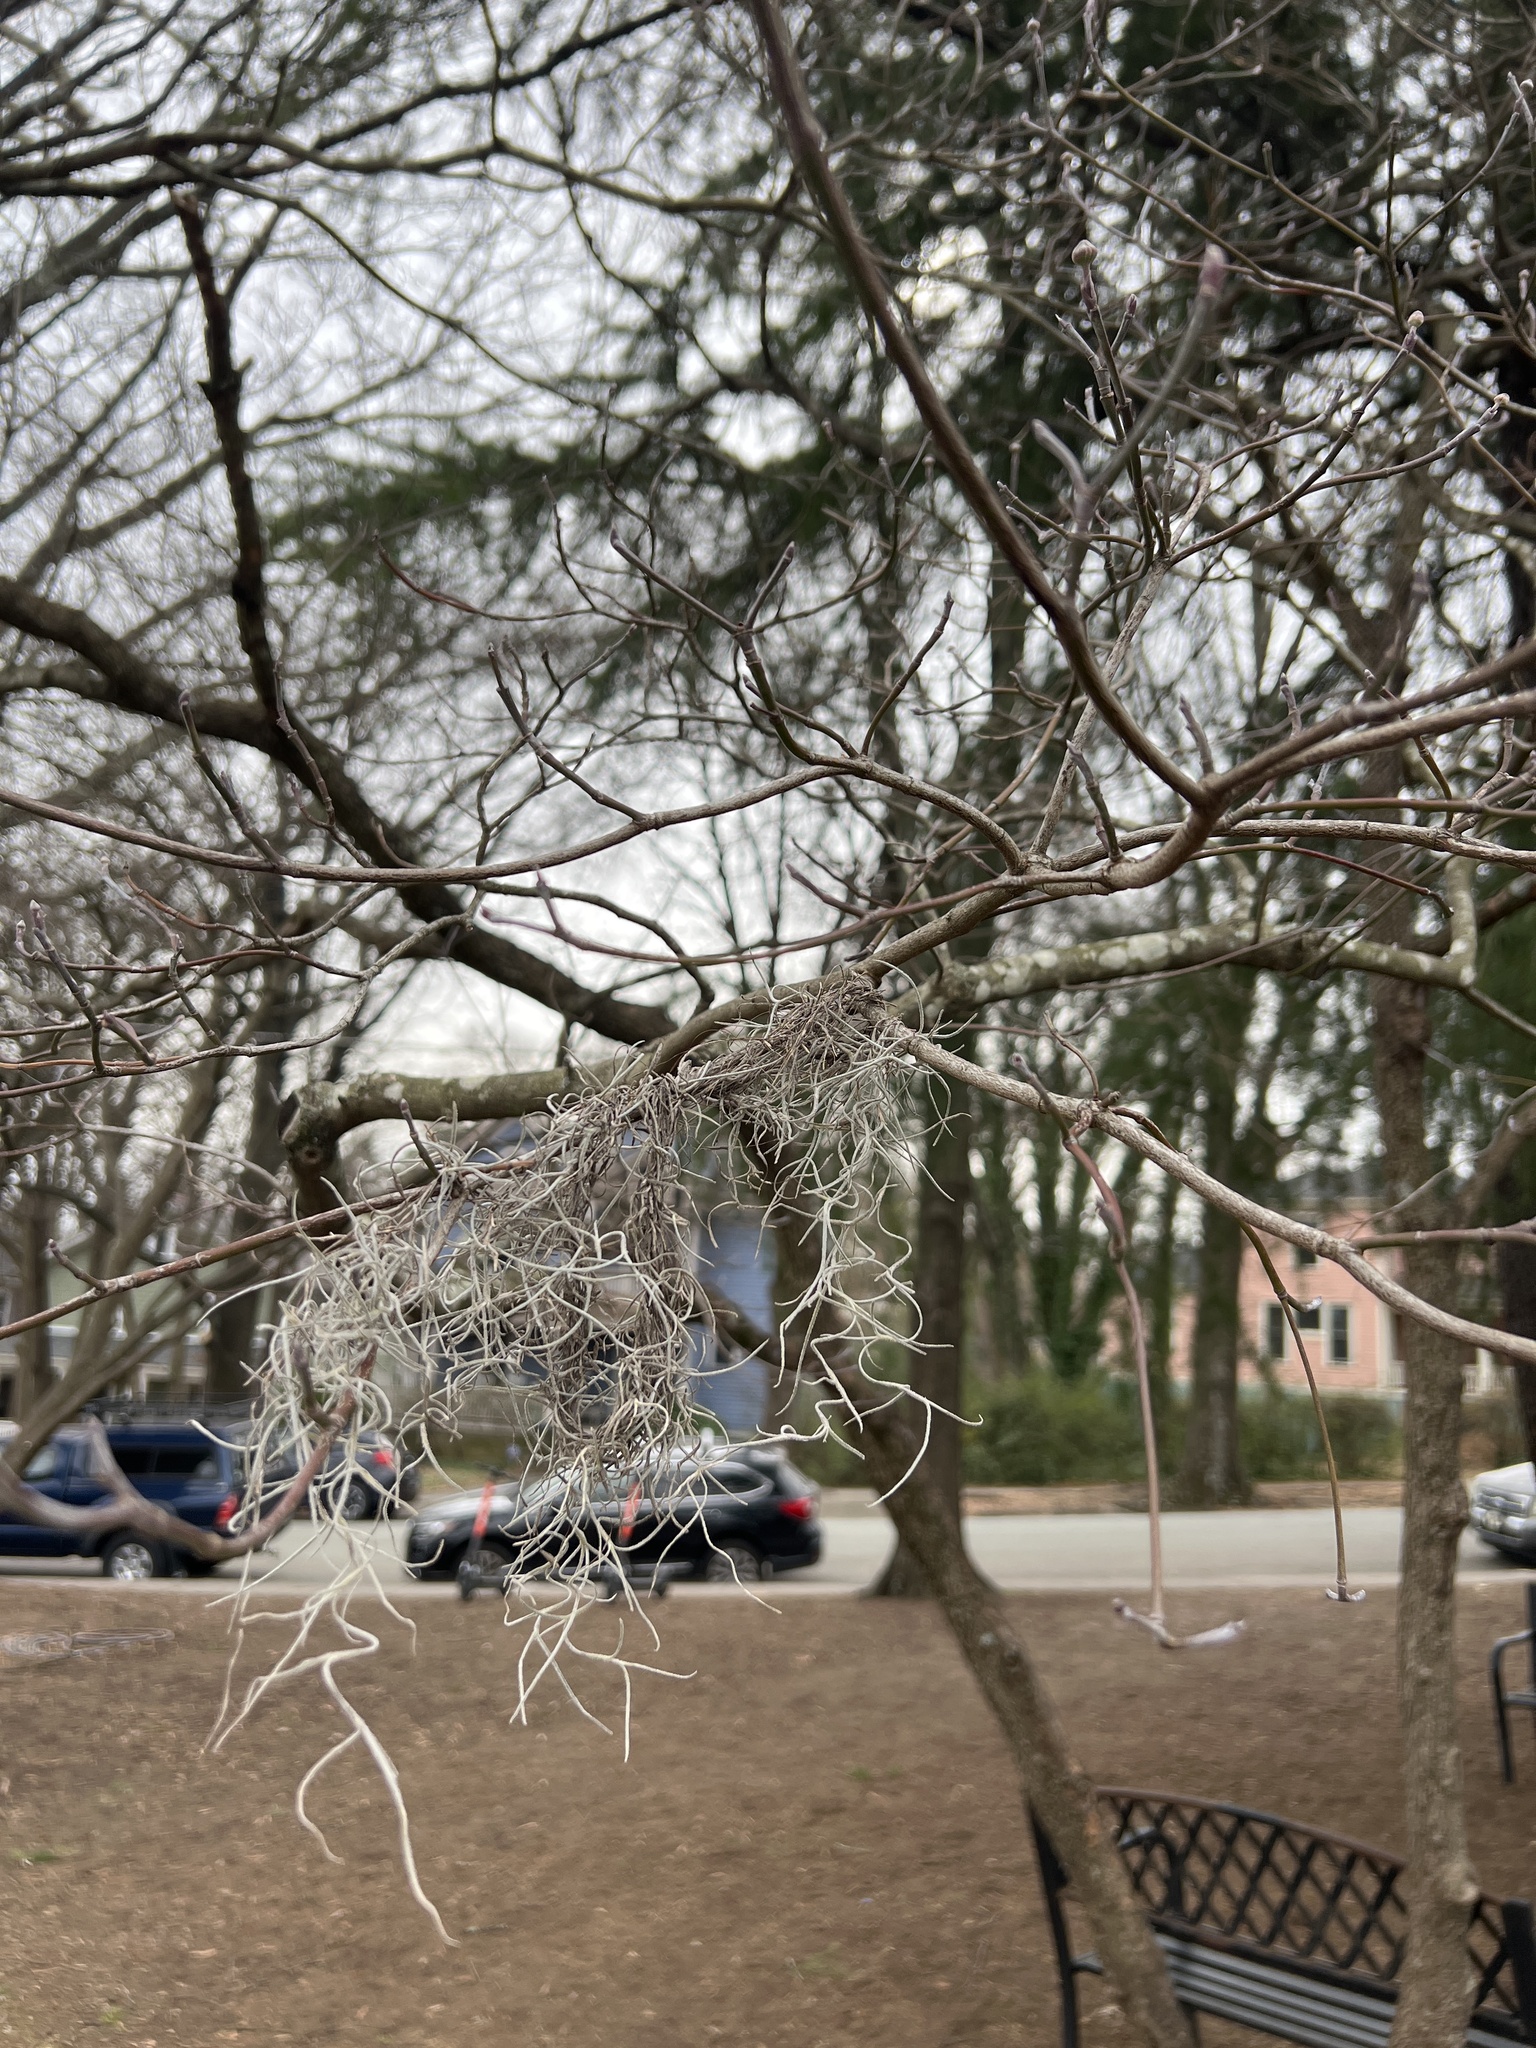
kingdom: Plantae
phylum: Tracheophyta
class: Liliopsida
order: Poales
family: Bromeliaceae
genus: Tillandsia
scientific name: Tillandsia usneoides
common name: Spanish moss
